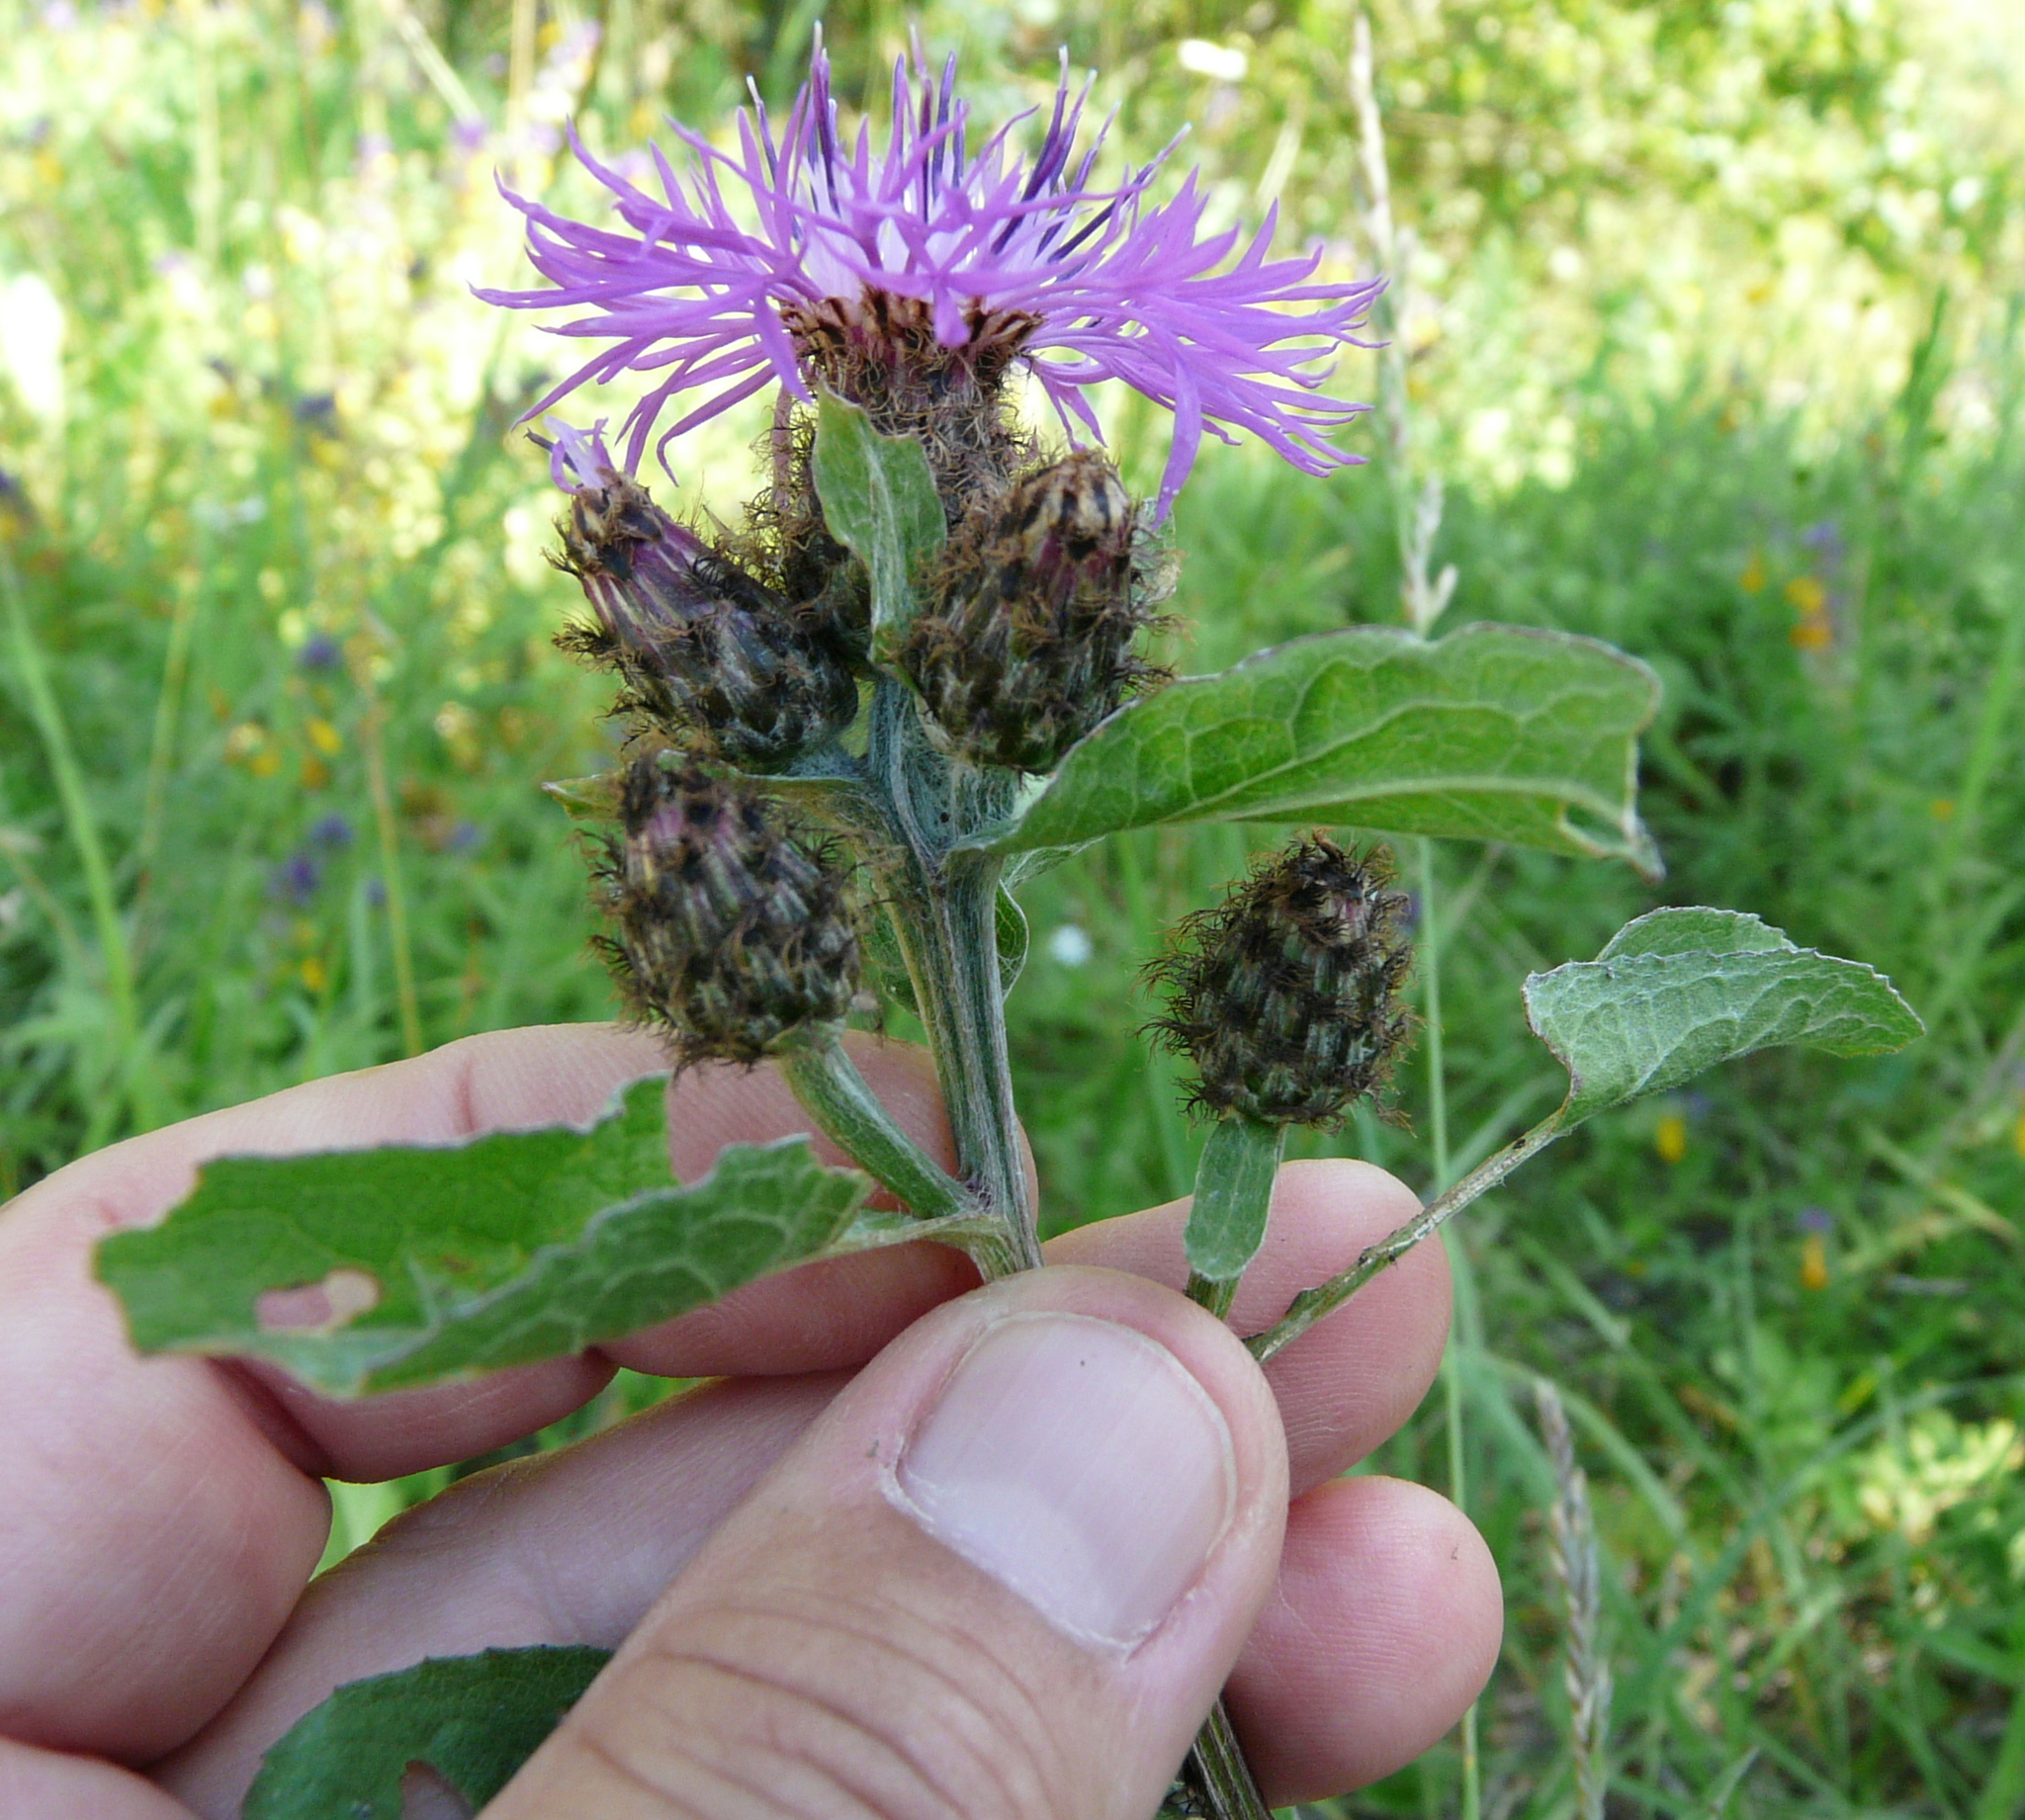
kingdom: Plantae
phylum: Tracheophyta
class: Magnoliopsida
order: Asterales
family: Asteraceae
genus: Centaurea
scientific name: Centaurea phrygia
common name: Wig knapweed
